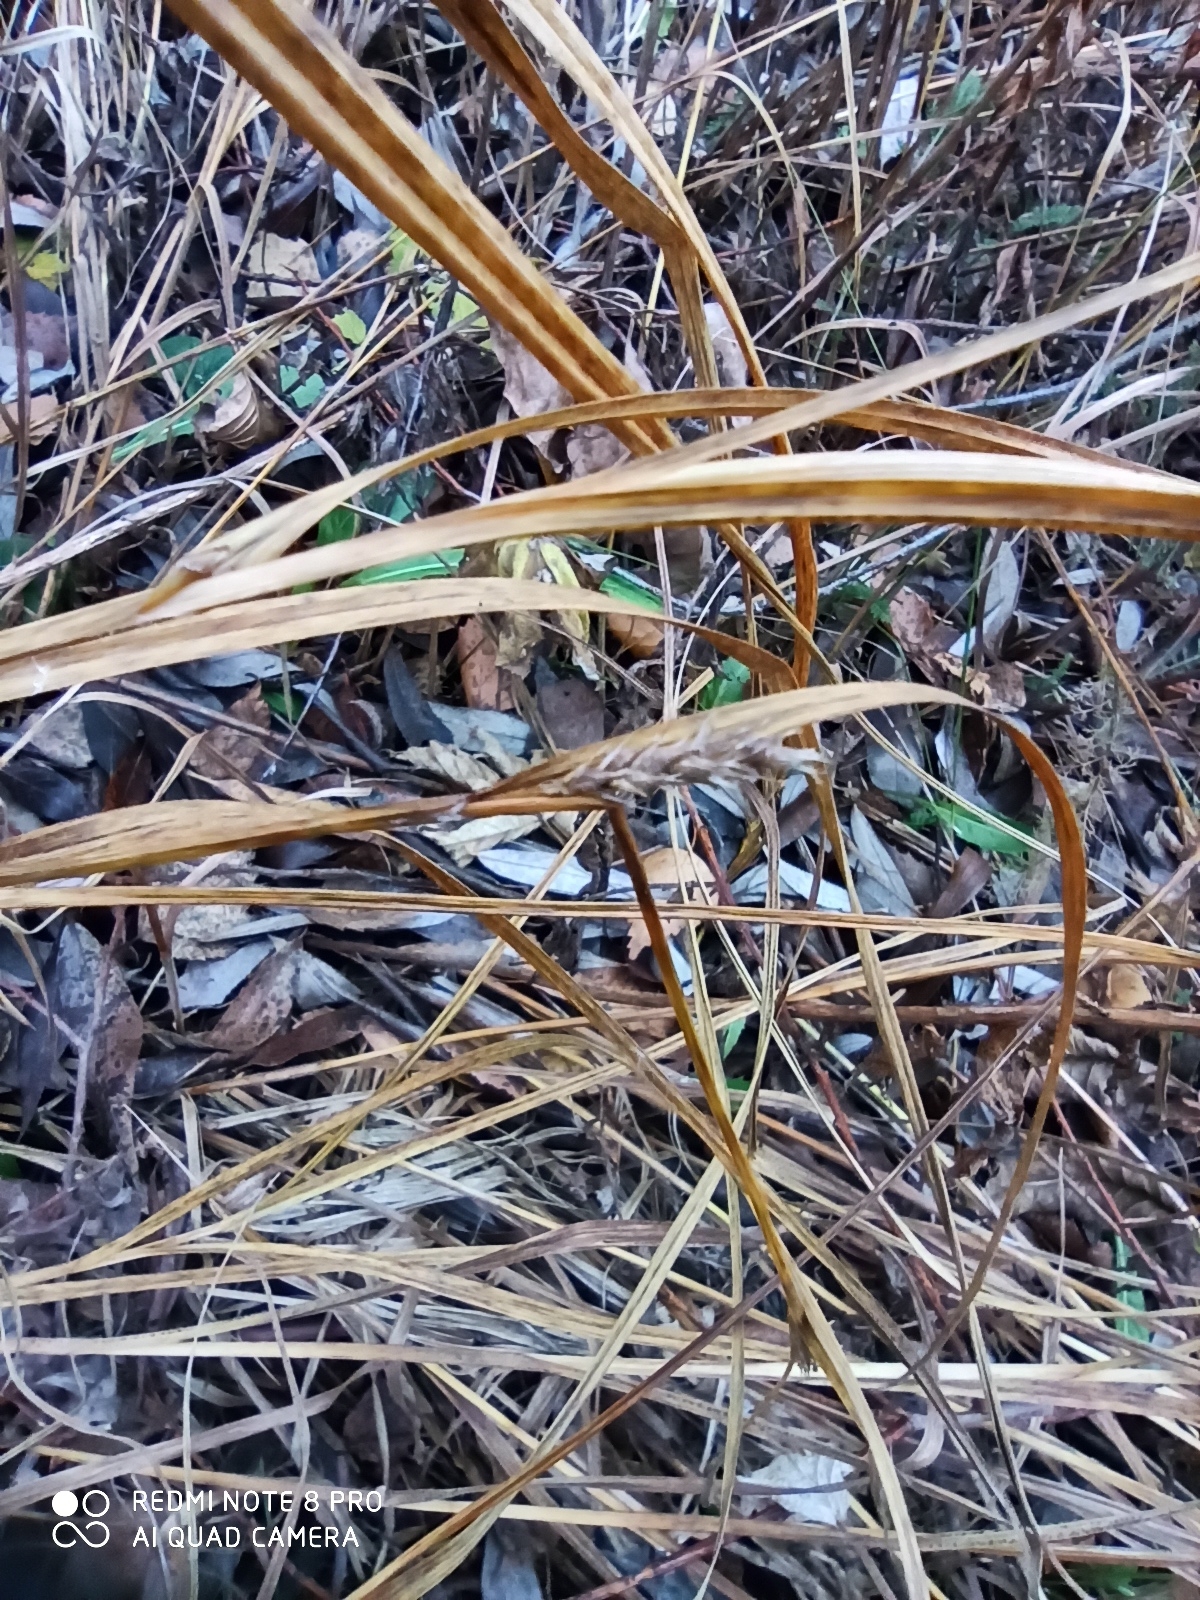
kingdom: Plantae
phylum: Tracheophyta
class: Liliopsida
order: Poales
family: Cyperaceae
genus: Carex
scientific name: Carex atherodes
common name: Wheat sedge
